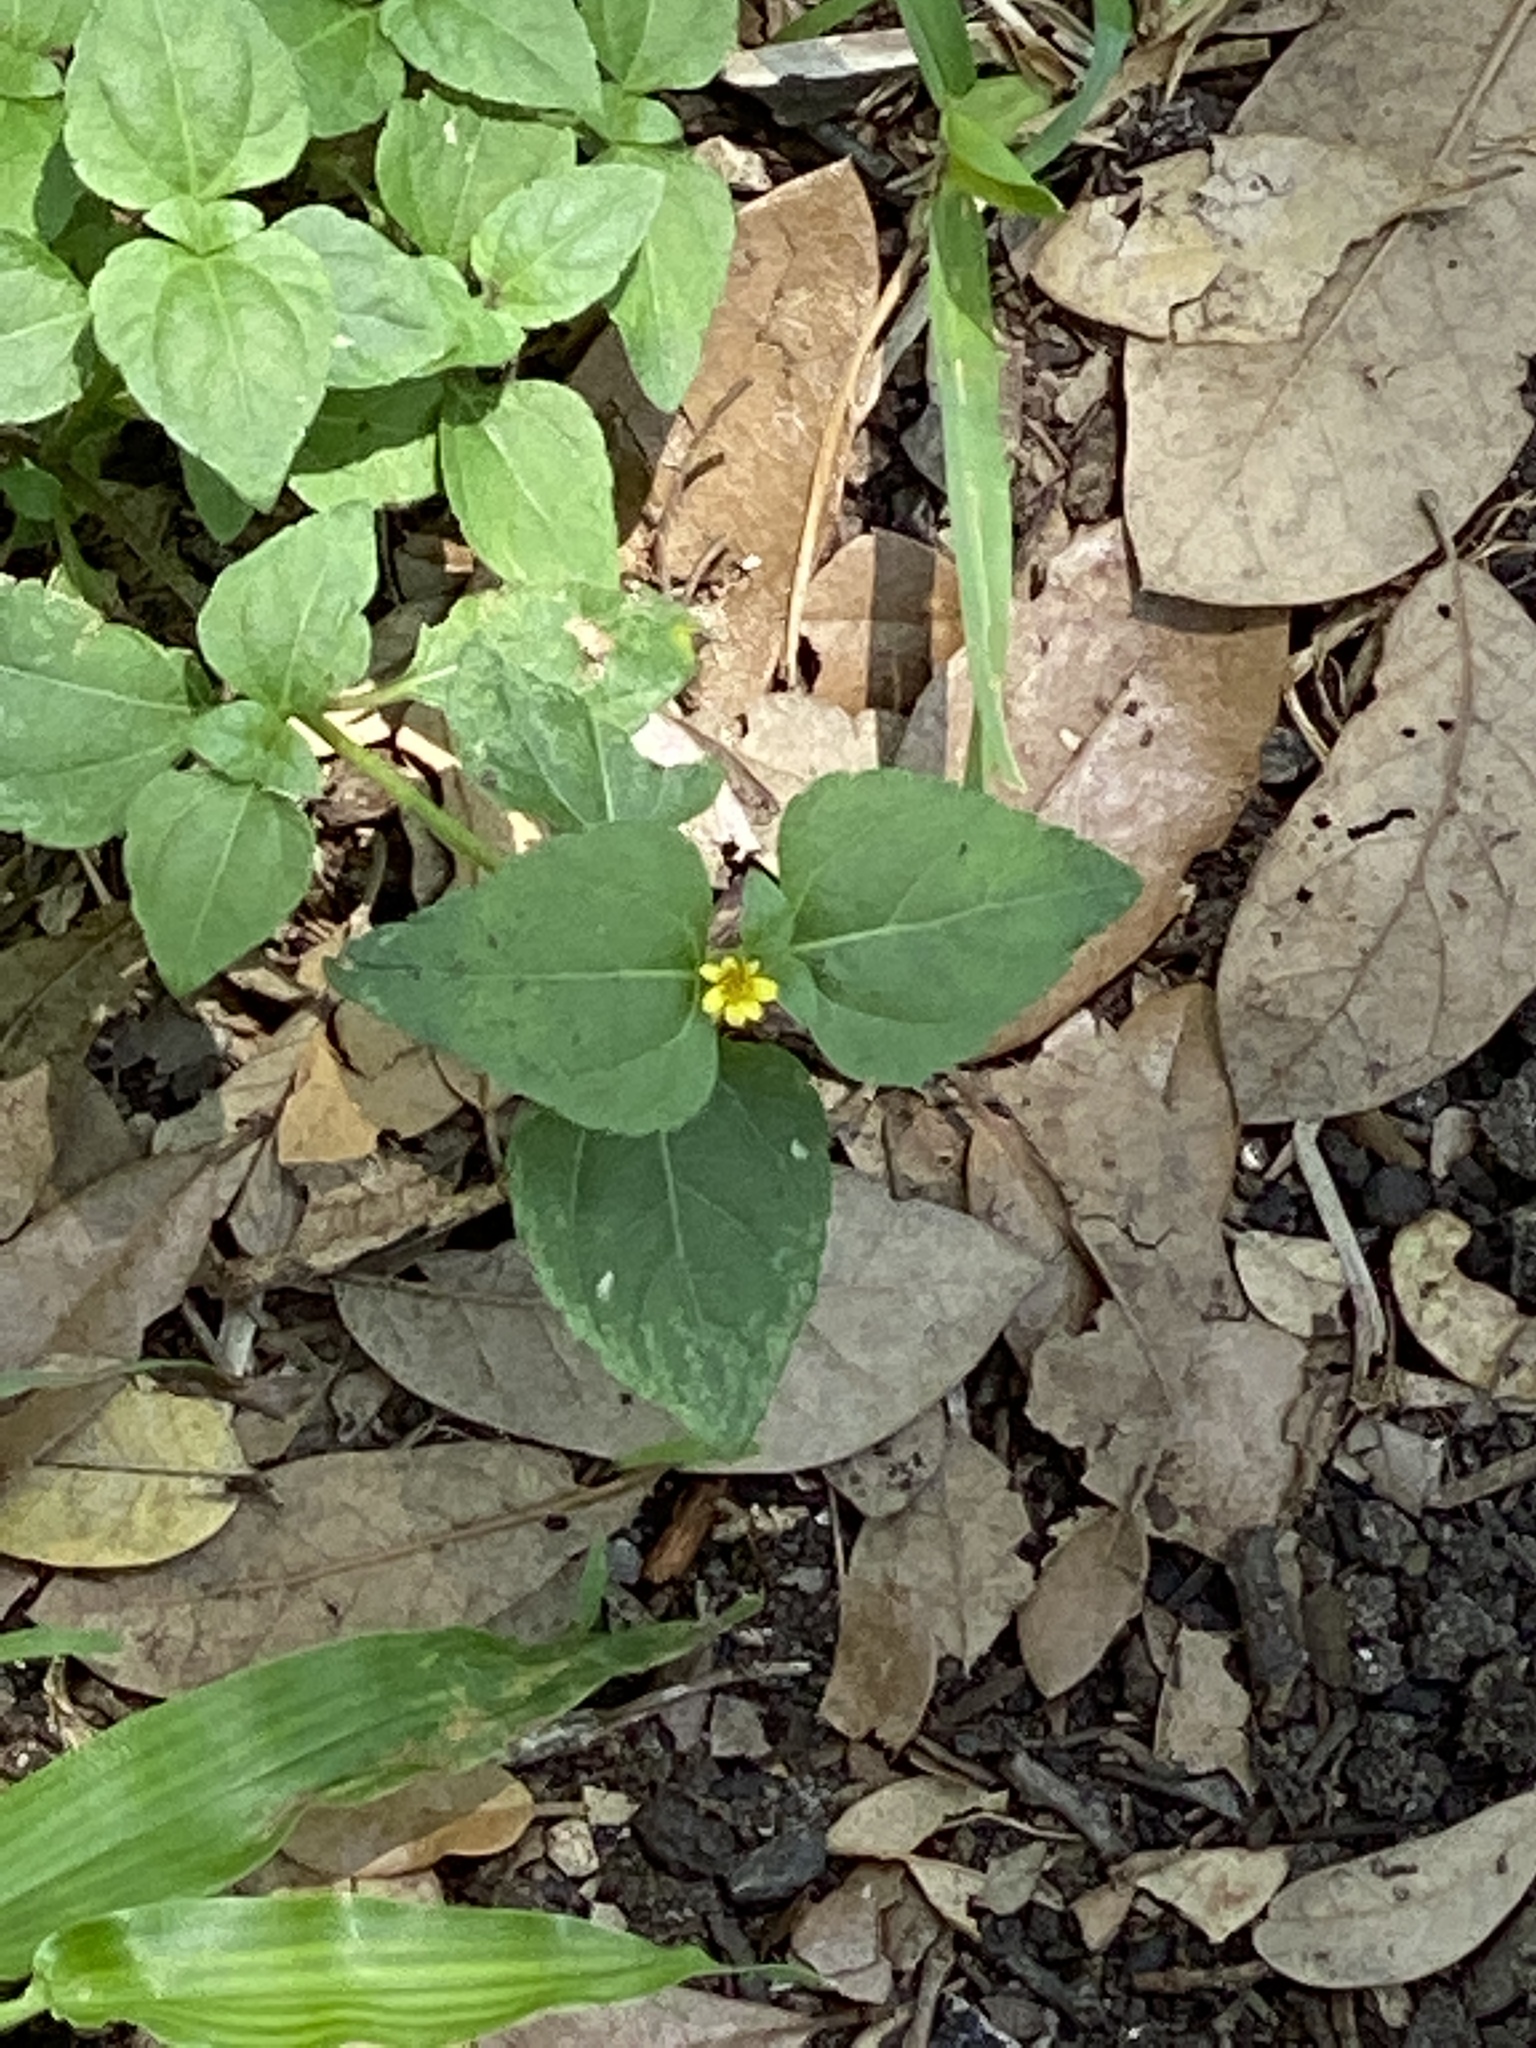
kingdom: Plantae
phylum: Tracheophyta
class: Magnoliopsida
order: Asterales
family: Asteraceae
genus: Calyptocarpus
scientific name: Calyptocarpus vialis
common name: Straggler daisy
